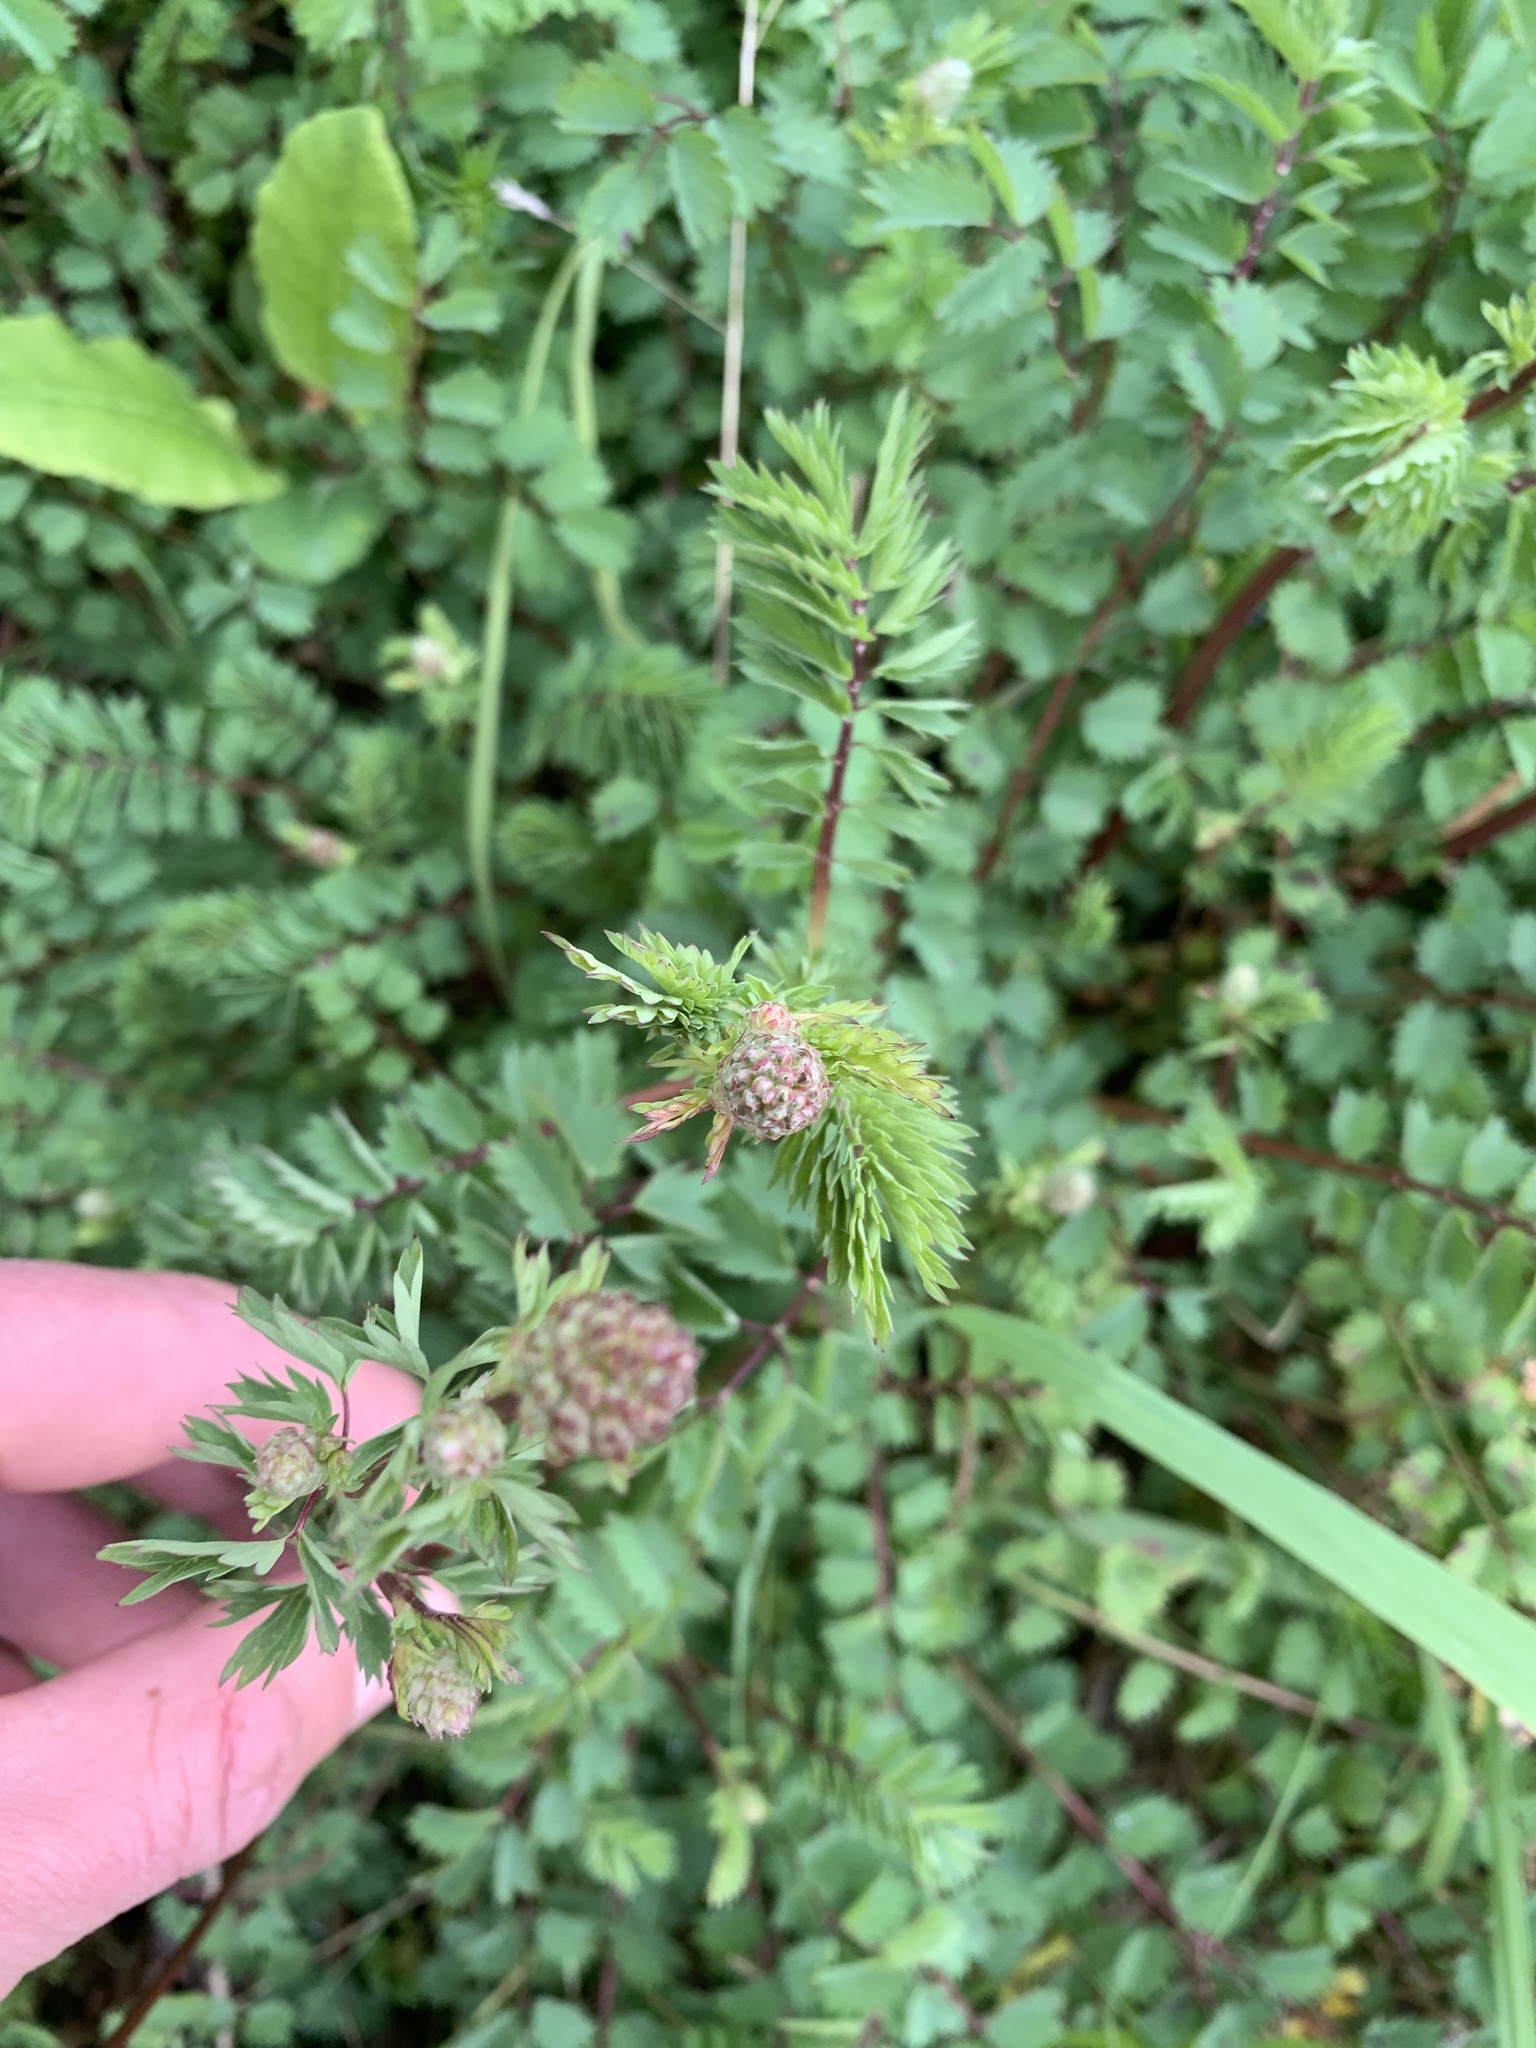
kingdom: Plantae
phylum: Tracheophyta
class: Magnoliopsida
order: Rosales
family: Rosaceae
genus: Poterium
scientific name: Poterium sanguisorba
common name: Salad burnet
